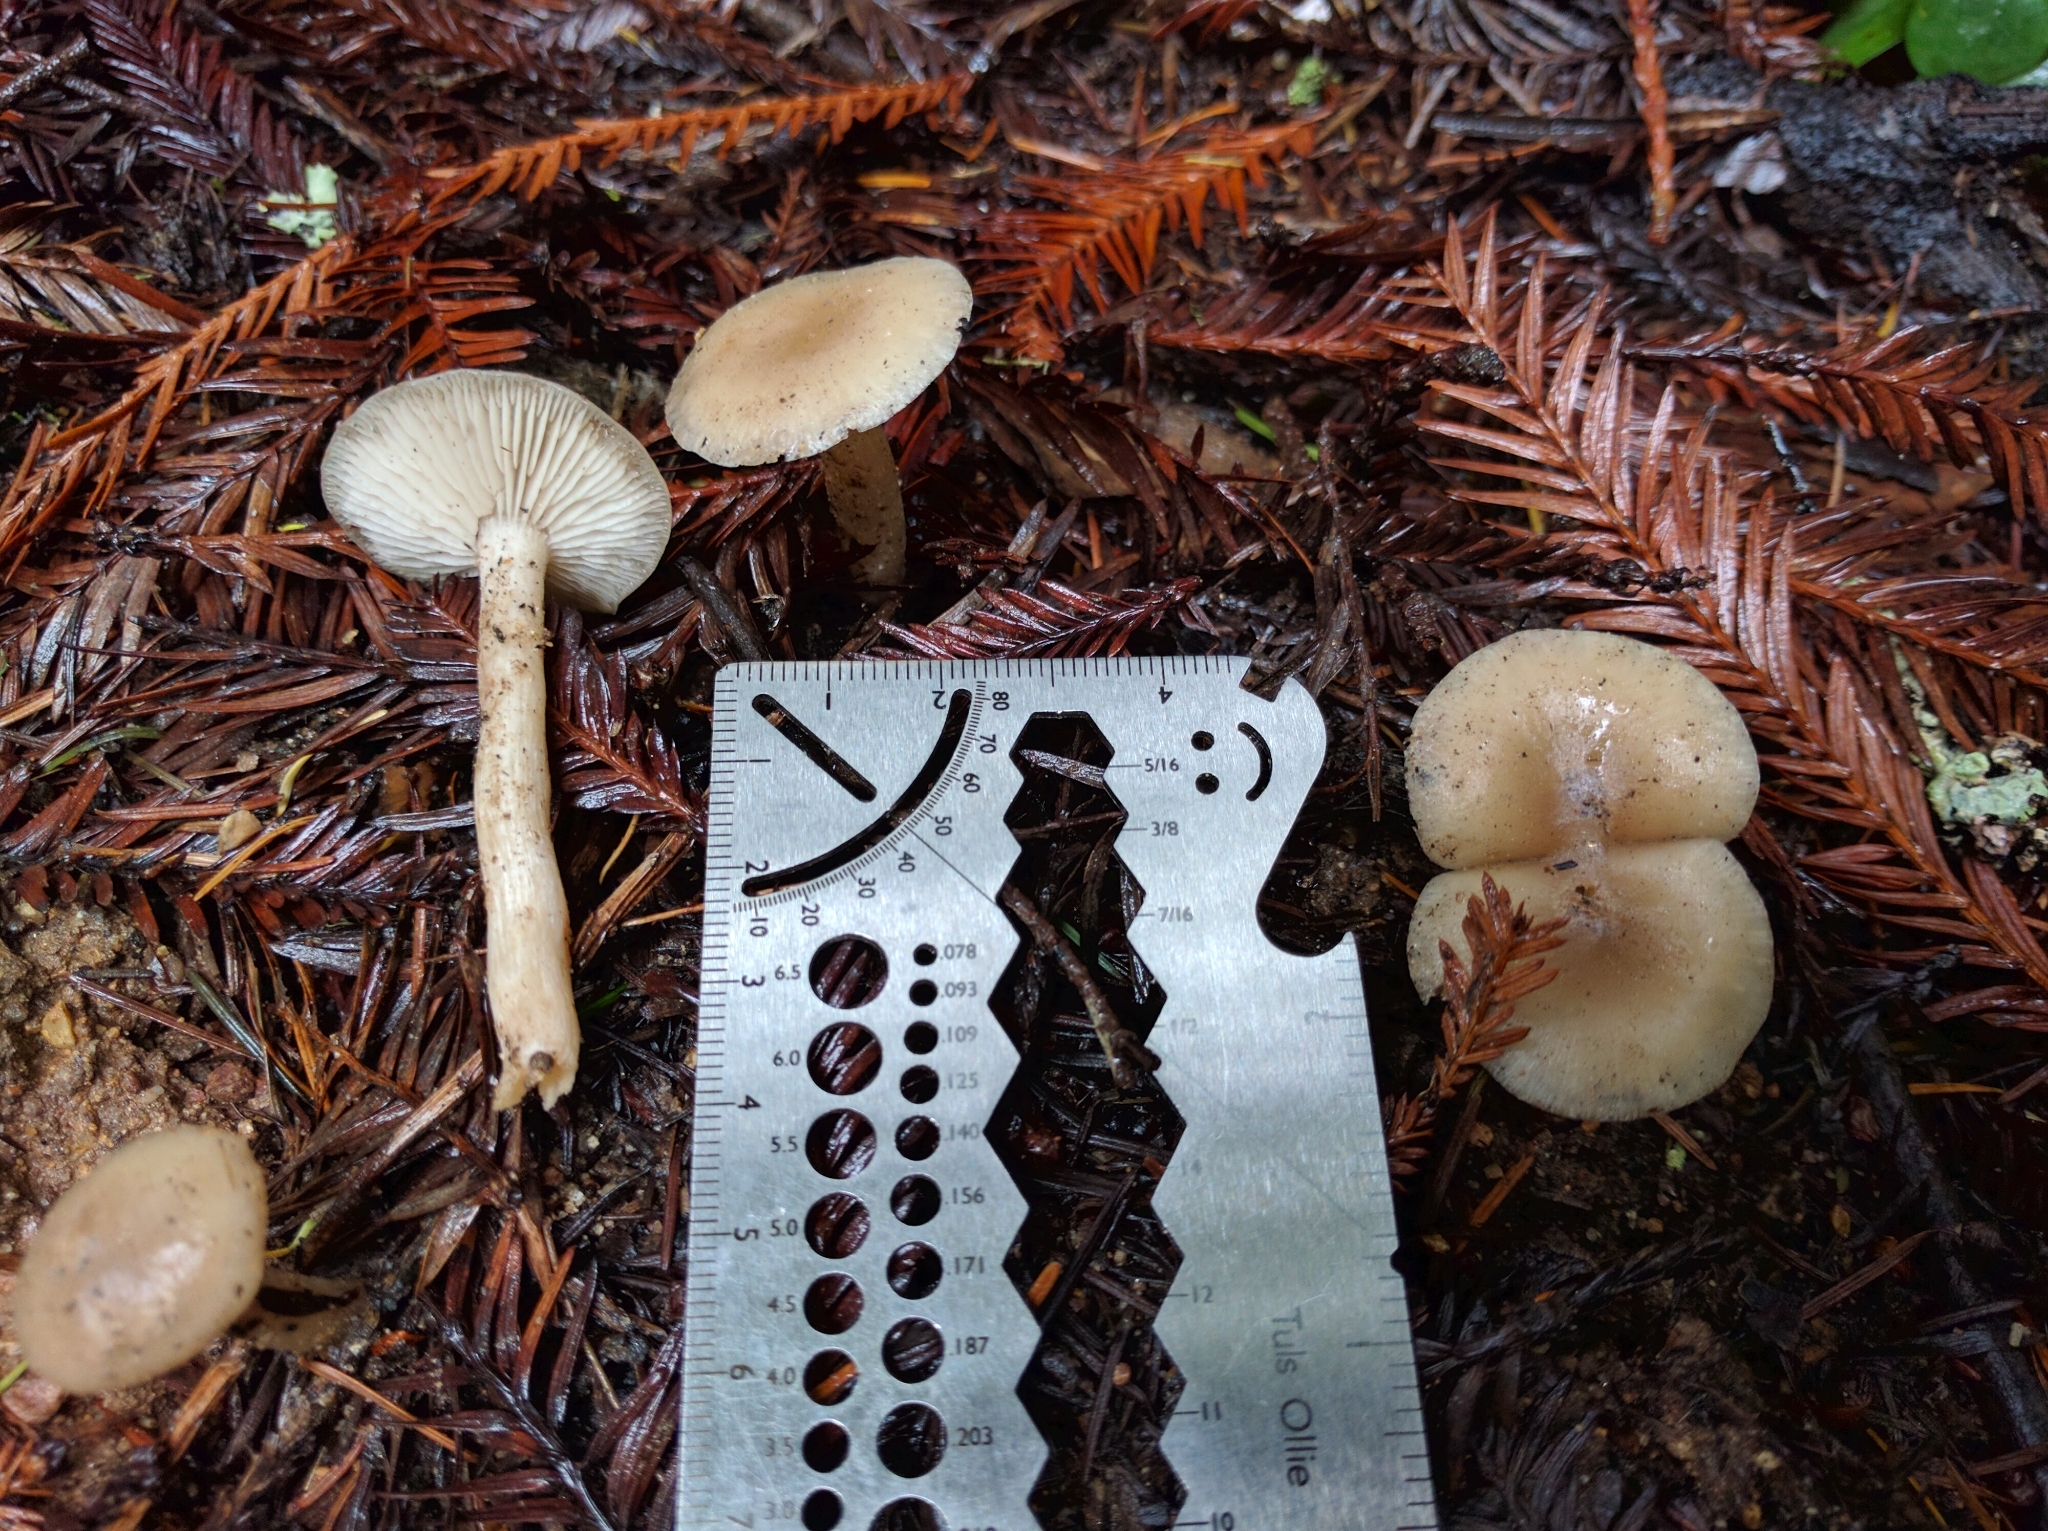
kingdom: Fungi
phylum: Basidiomycota
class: Agaricomycetes
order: Agaricales
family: Tricholomataceae
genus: Clitocybe
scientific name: Clitocybe fragrans
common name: Fragrant funnel
